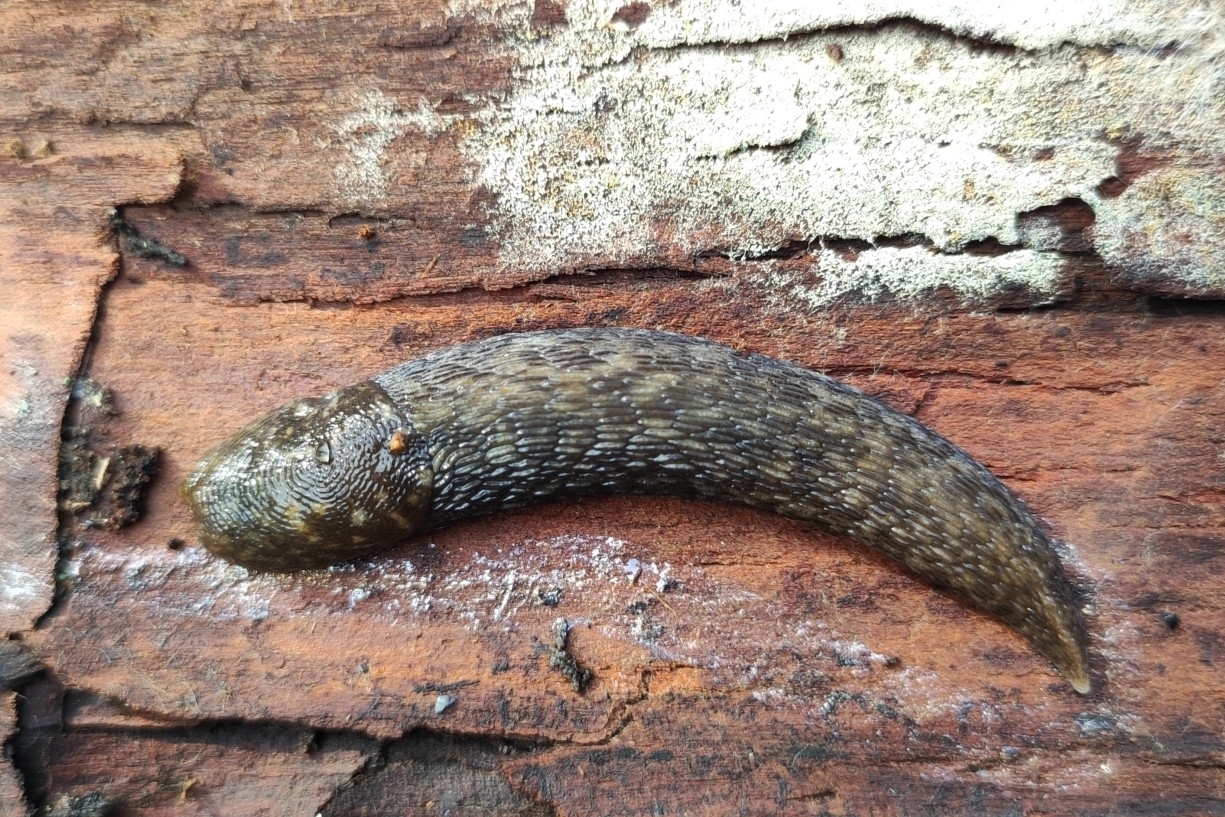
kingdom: Animalia
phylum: Mollusca
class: Gastropoda
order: Stylommatophora
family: Limacidae
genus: Limacus
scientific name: Limacus maculatus
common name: Irish yellow slug
